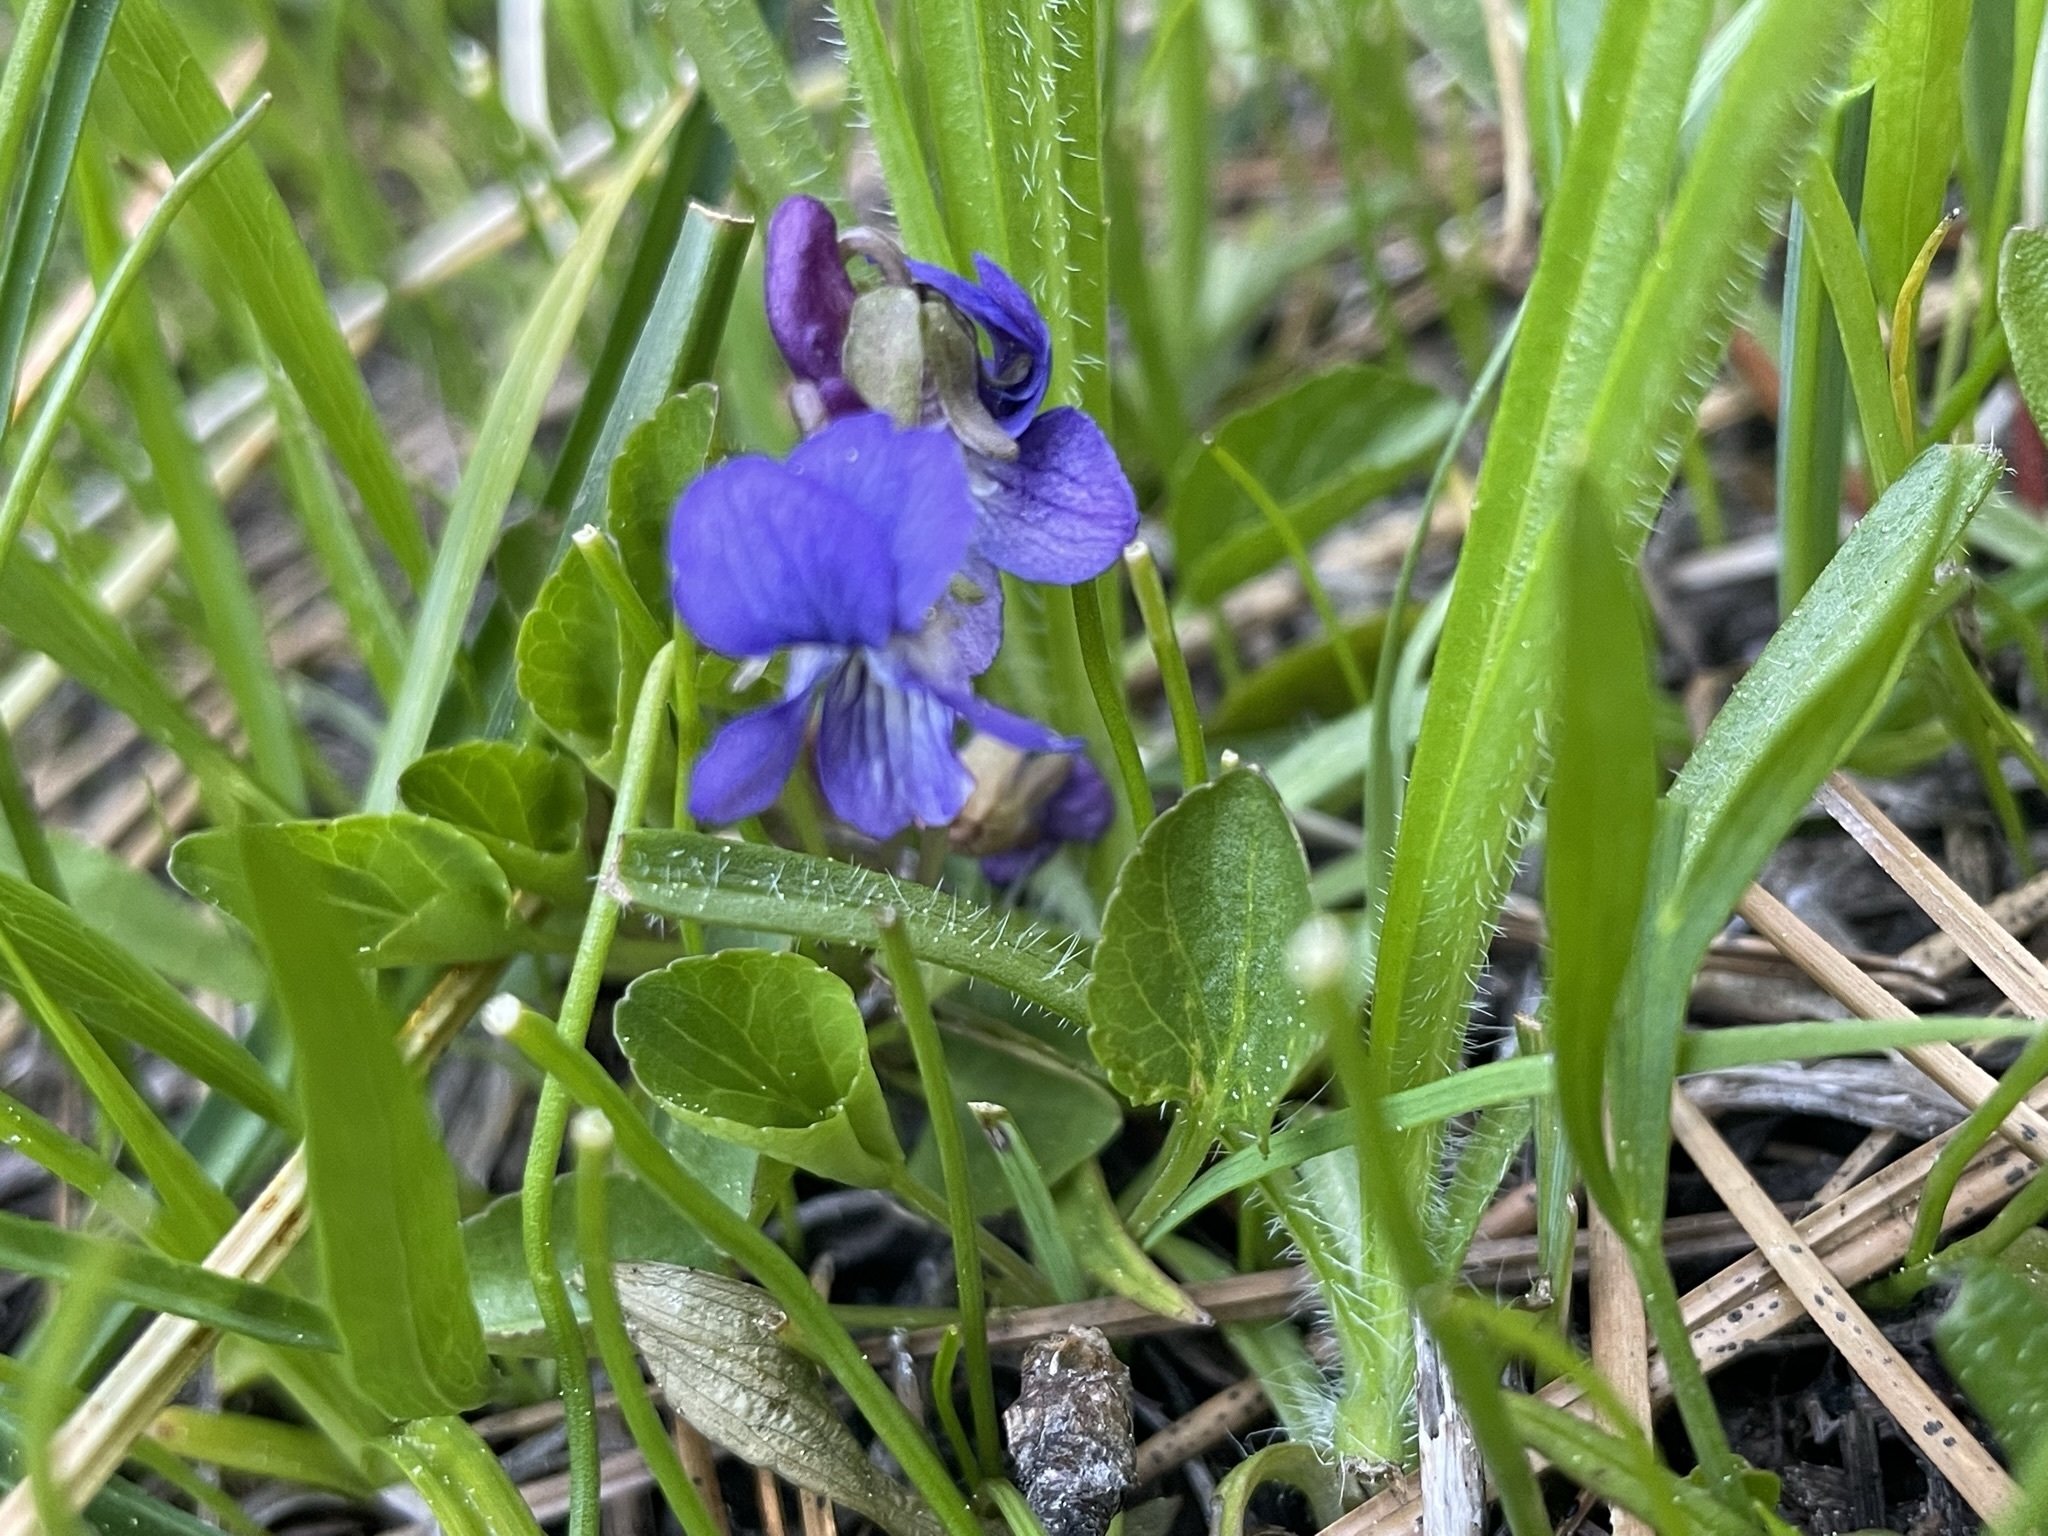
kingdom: Plantae
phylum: Tracheophyta
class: Magnoliopsida
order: Malpighiales
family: Violaceae
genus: Viola
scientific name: Viola adunca
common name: Sand violet
